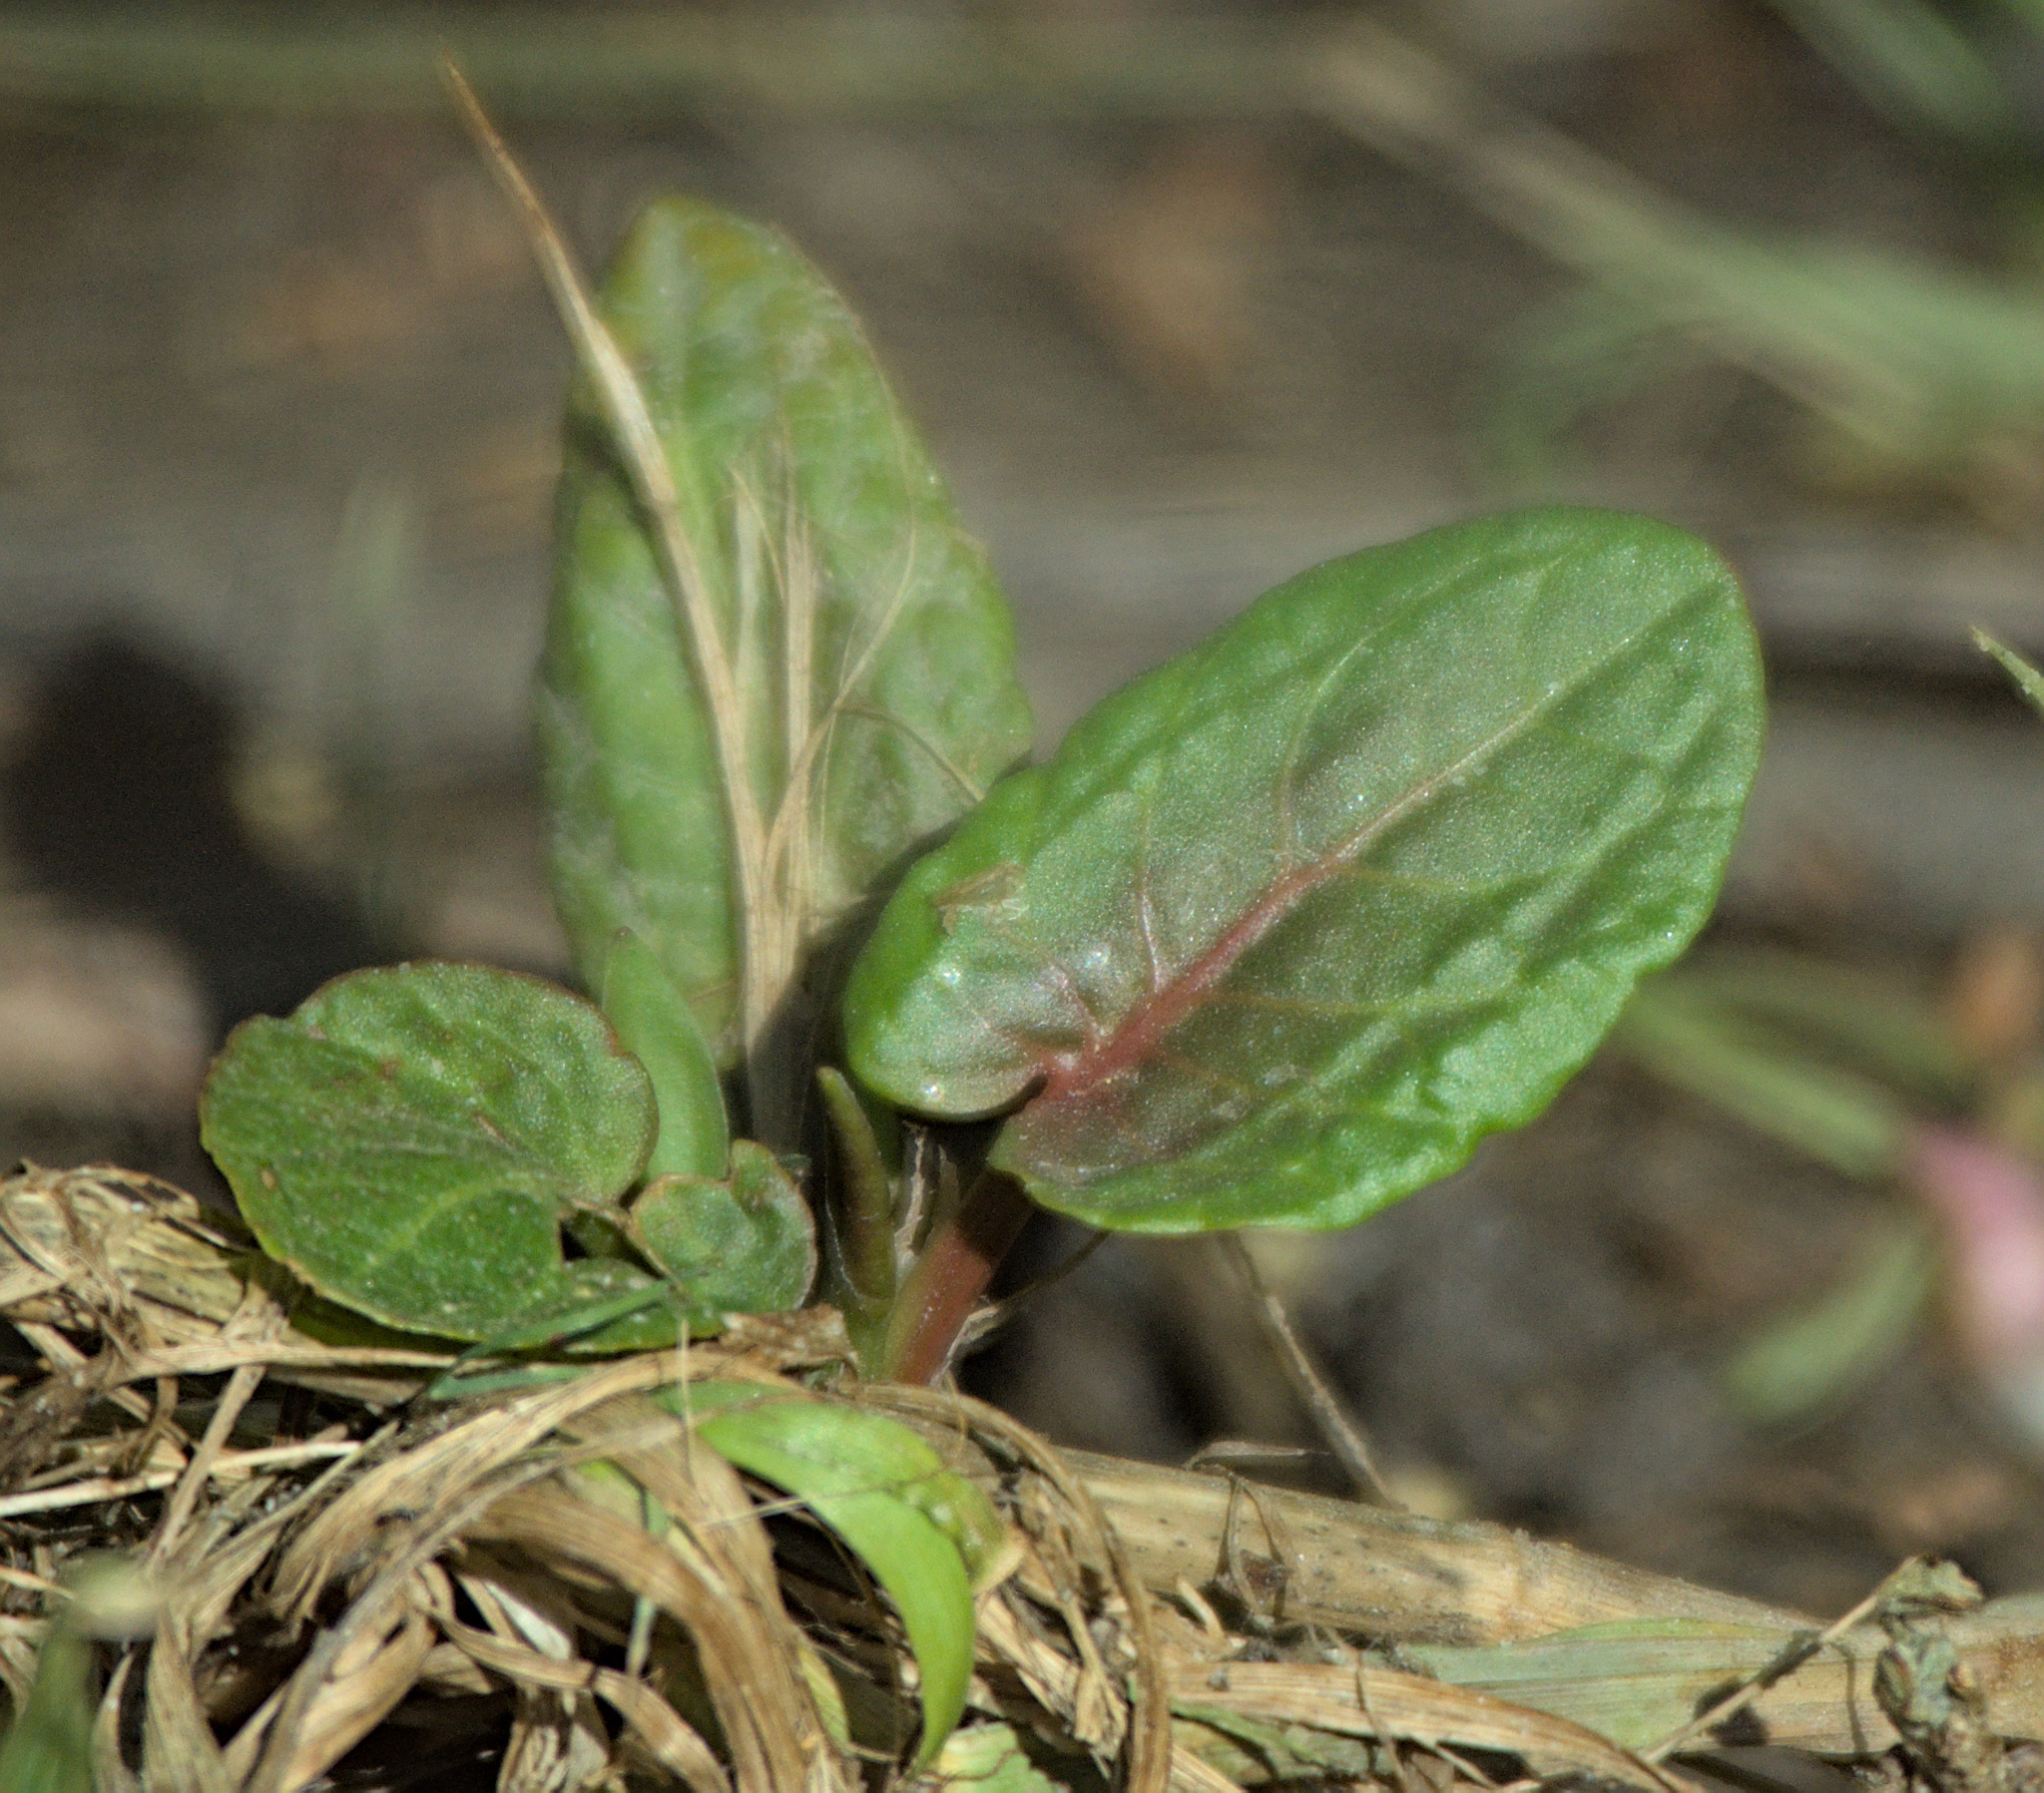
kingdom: Plantae
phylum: Tracheophyta
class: Magnoliopsida
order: Caryophyllales
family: Polygonaceae
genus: Rumex
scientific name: Rumex obtusifolius
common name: Bitter dock
